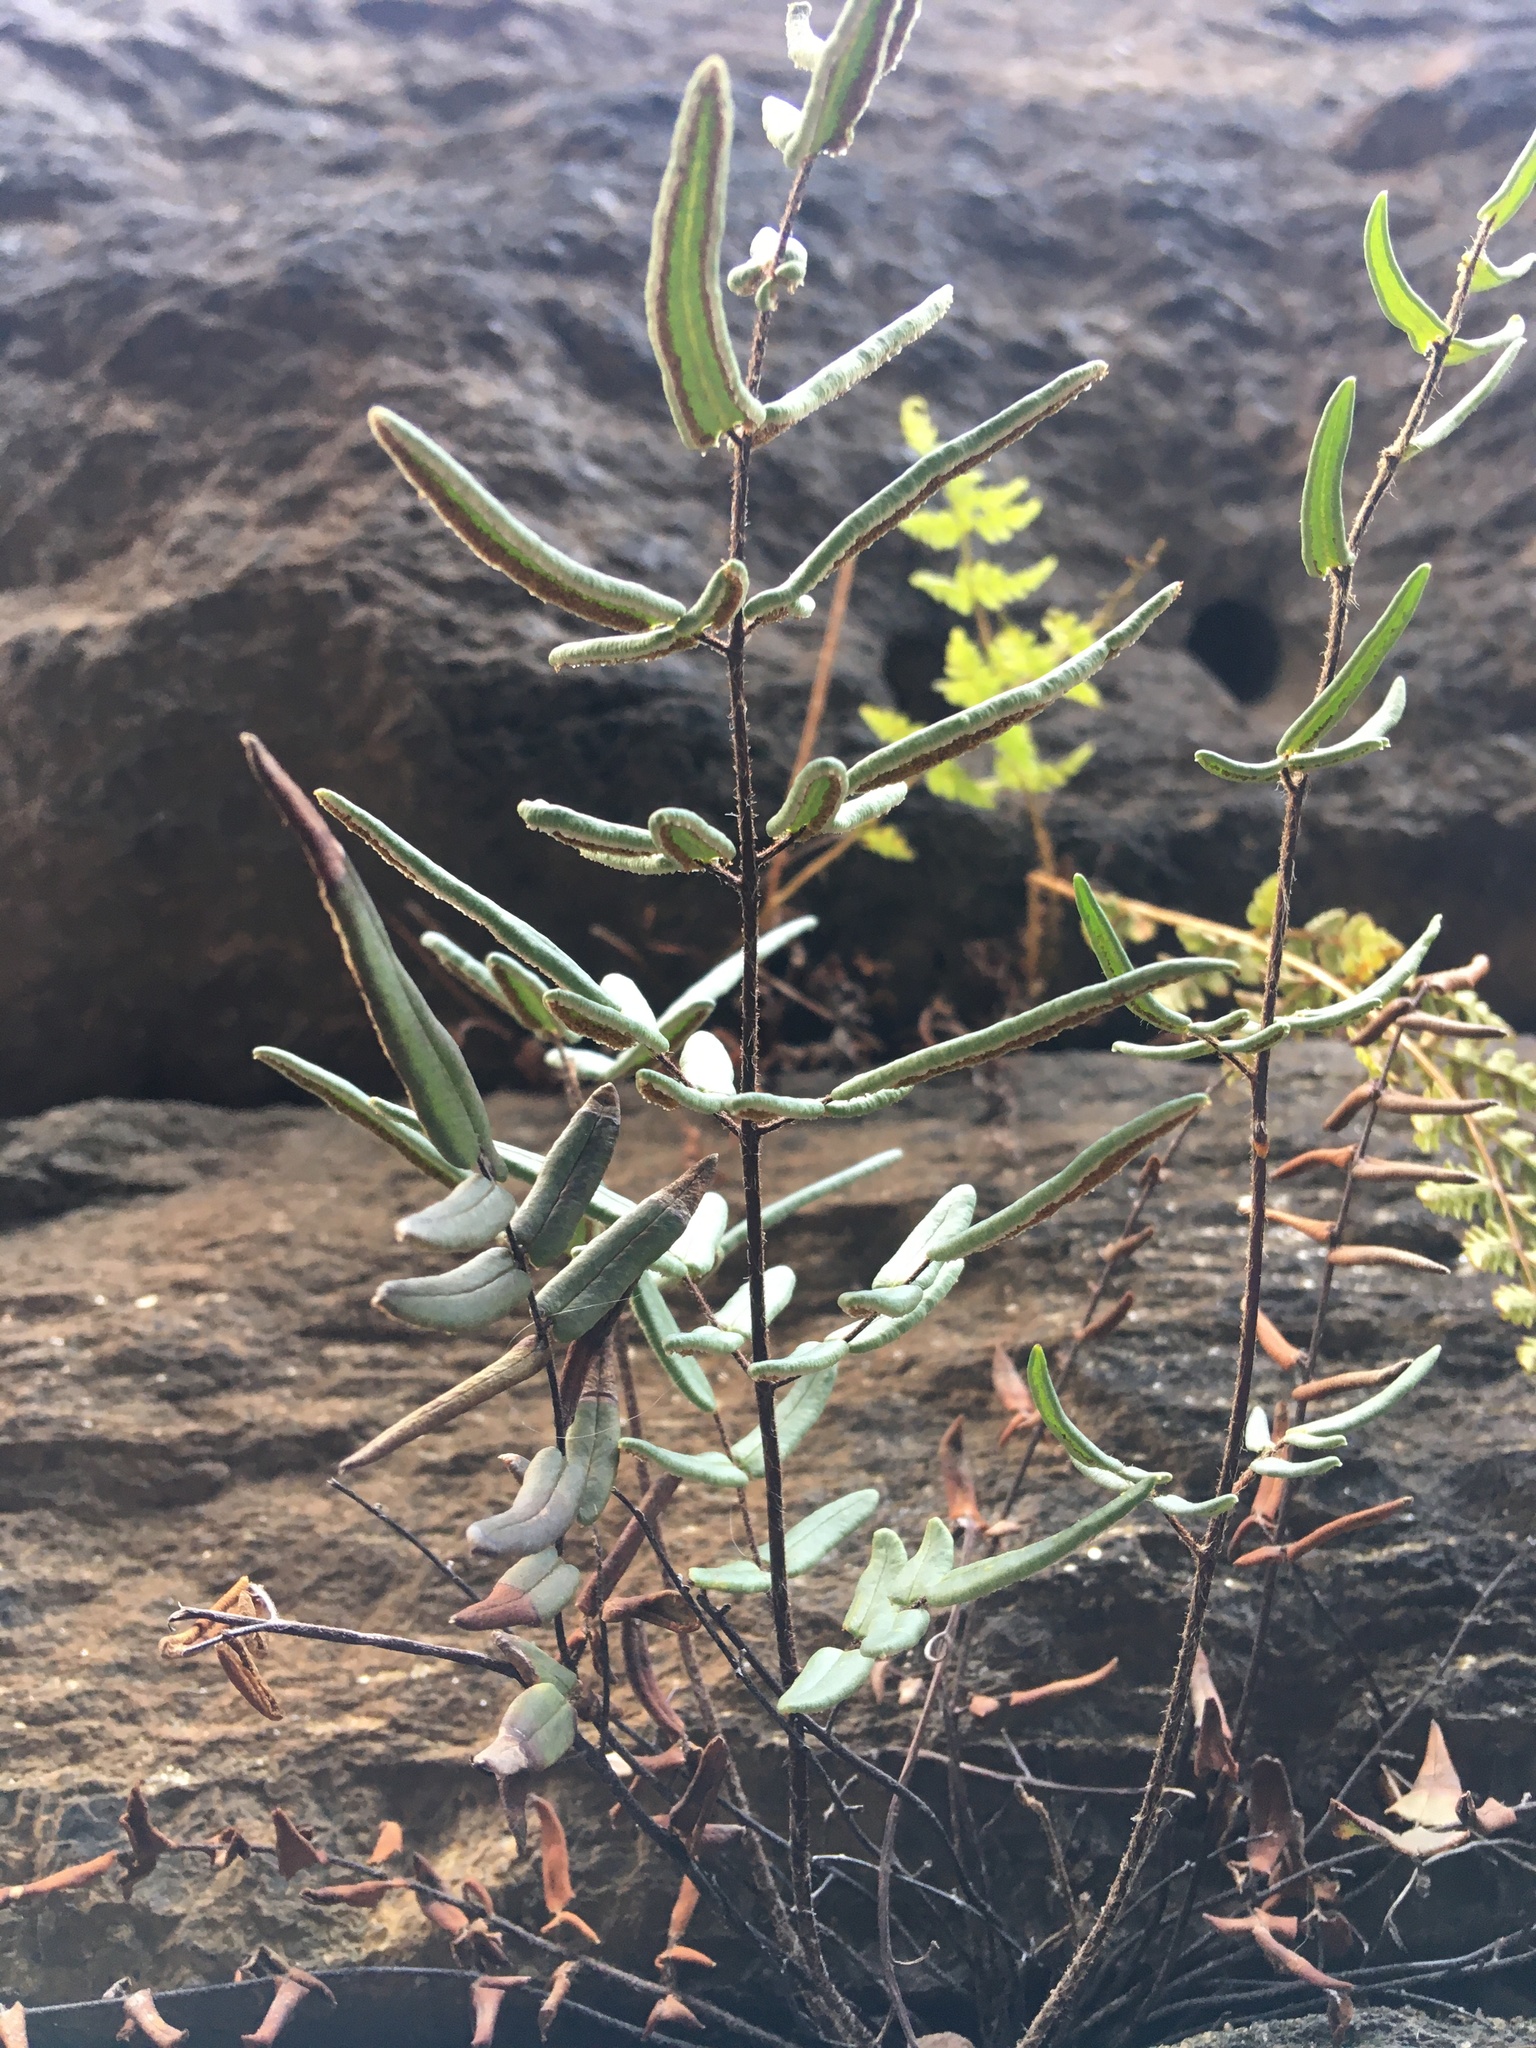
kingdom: Plantae
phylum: Tracheophyta
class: Polypodiopsida
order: Polypodiales
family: Pteridaceae
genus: Pellaea
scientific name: Pellaea atropurpurea
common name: Hairy cliffbrake
